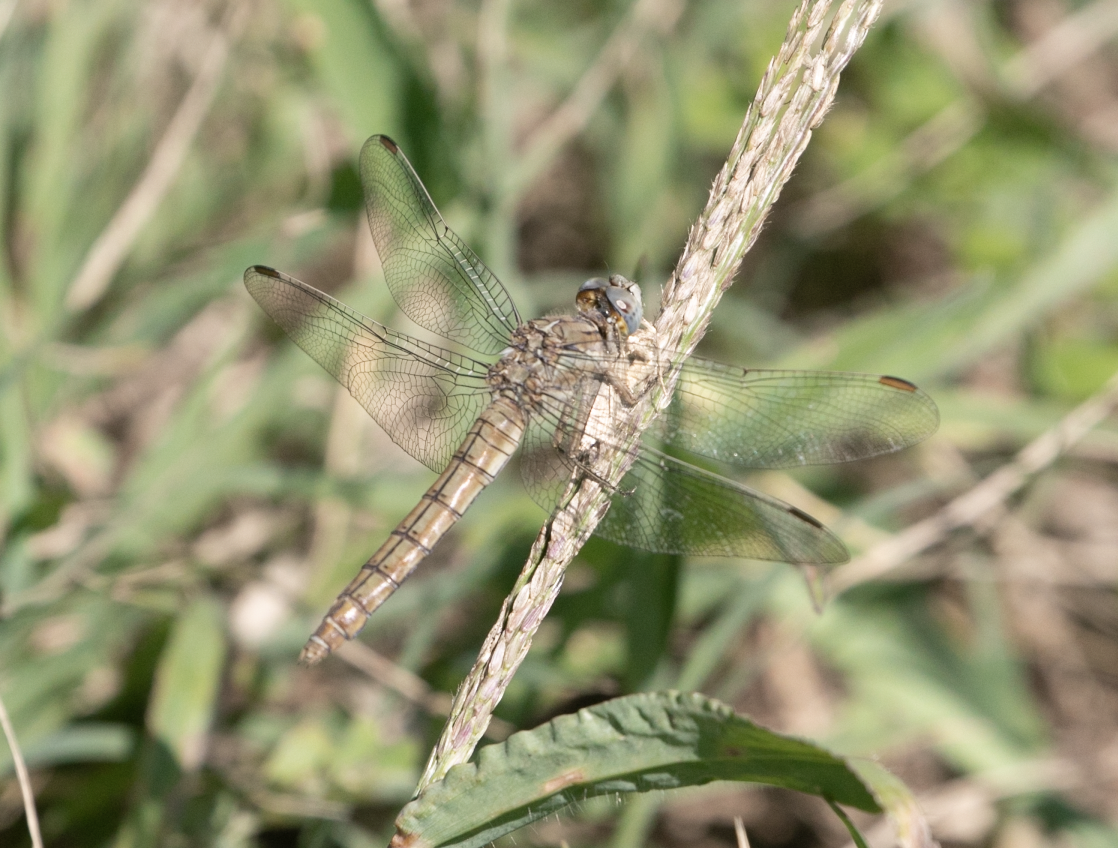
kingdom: Animalia
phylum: Arthropoda
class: Insecta
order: Odonata
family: Libellulidae
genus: Orthetrum
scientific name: Orthetrum brunneum
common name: Southern skimmer
